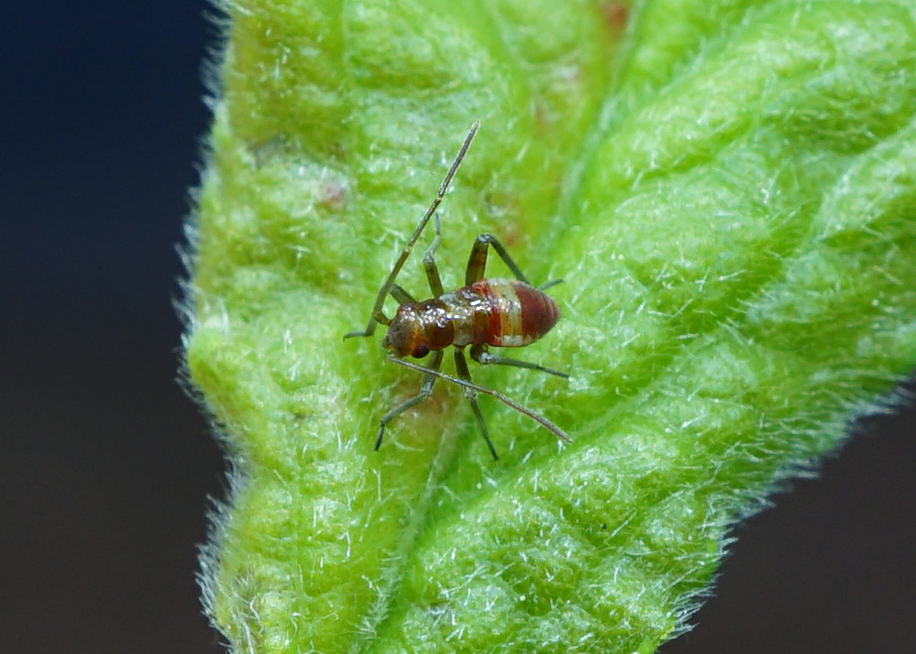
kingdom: Animalia
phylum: Arthropoda
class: Insecta
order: Hemiptera
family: Miridae
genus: Closterotomus
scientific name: Closterotomus fulvomaculatus
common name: Spotted plant bug
